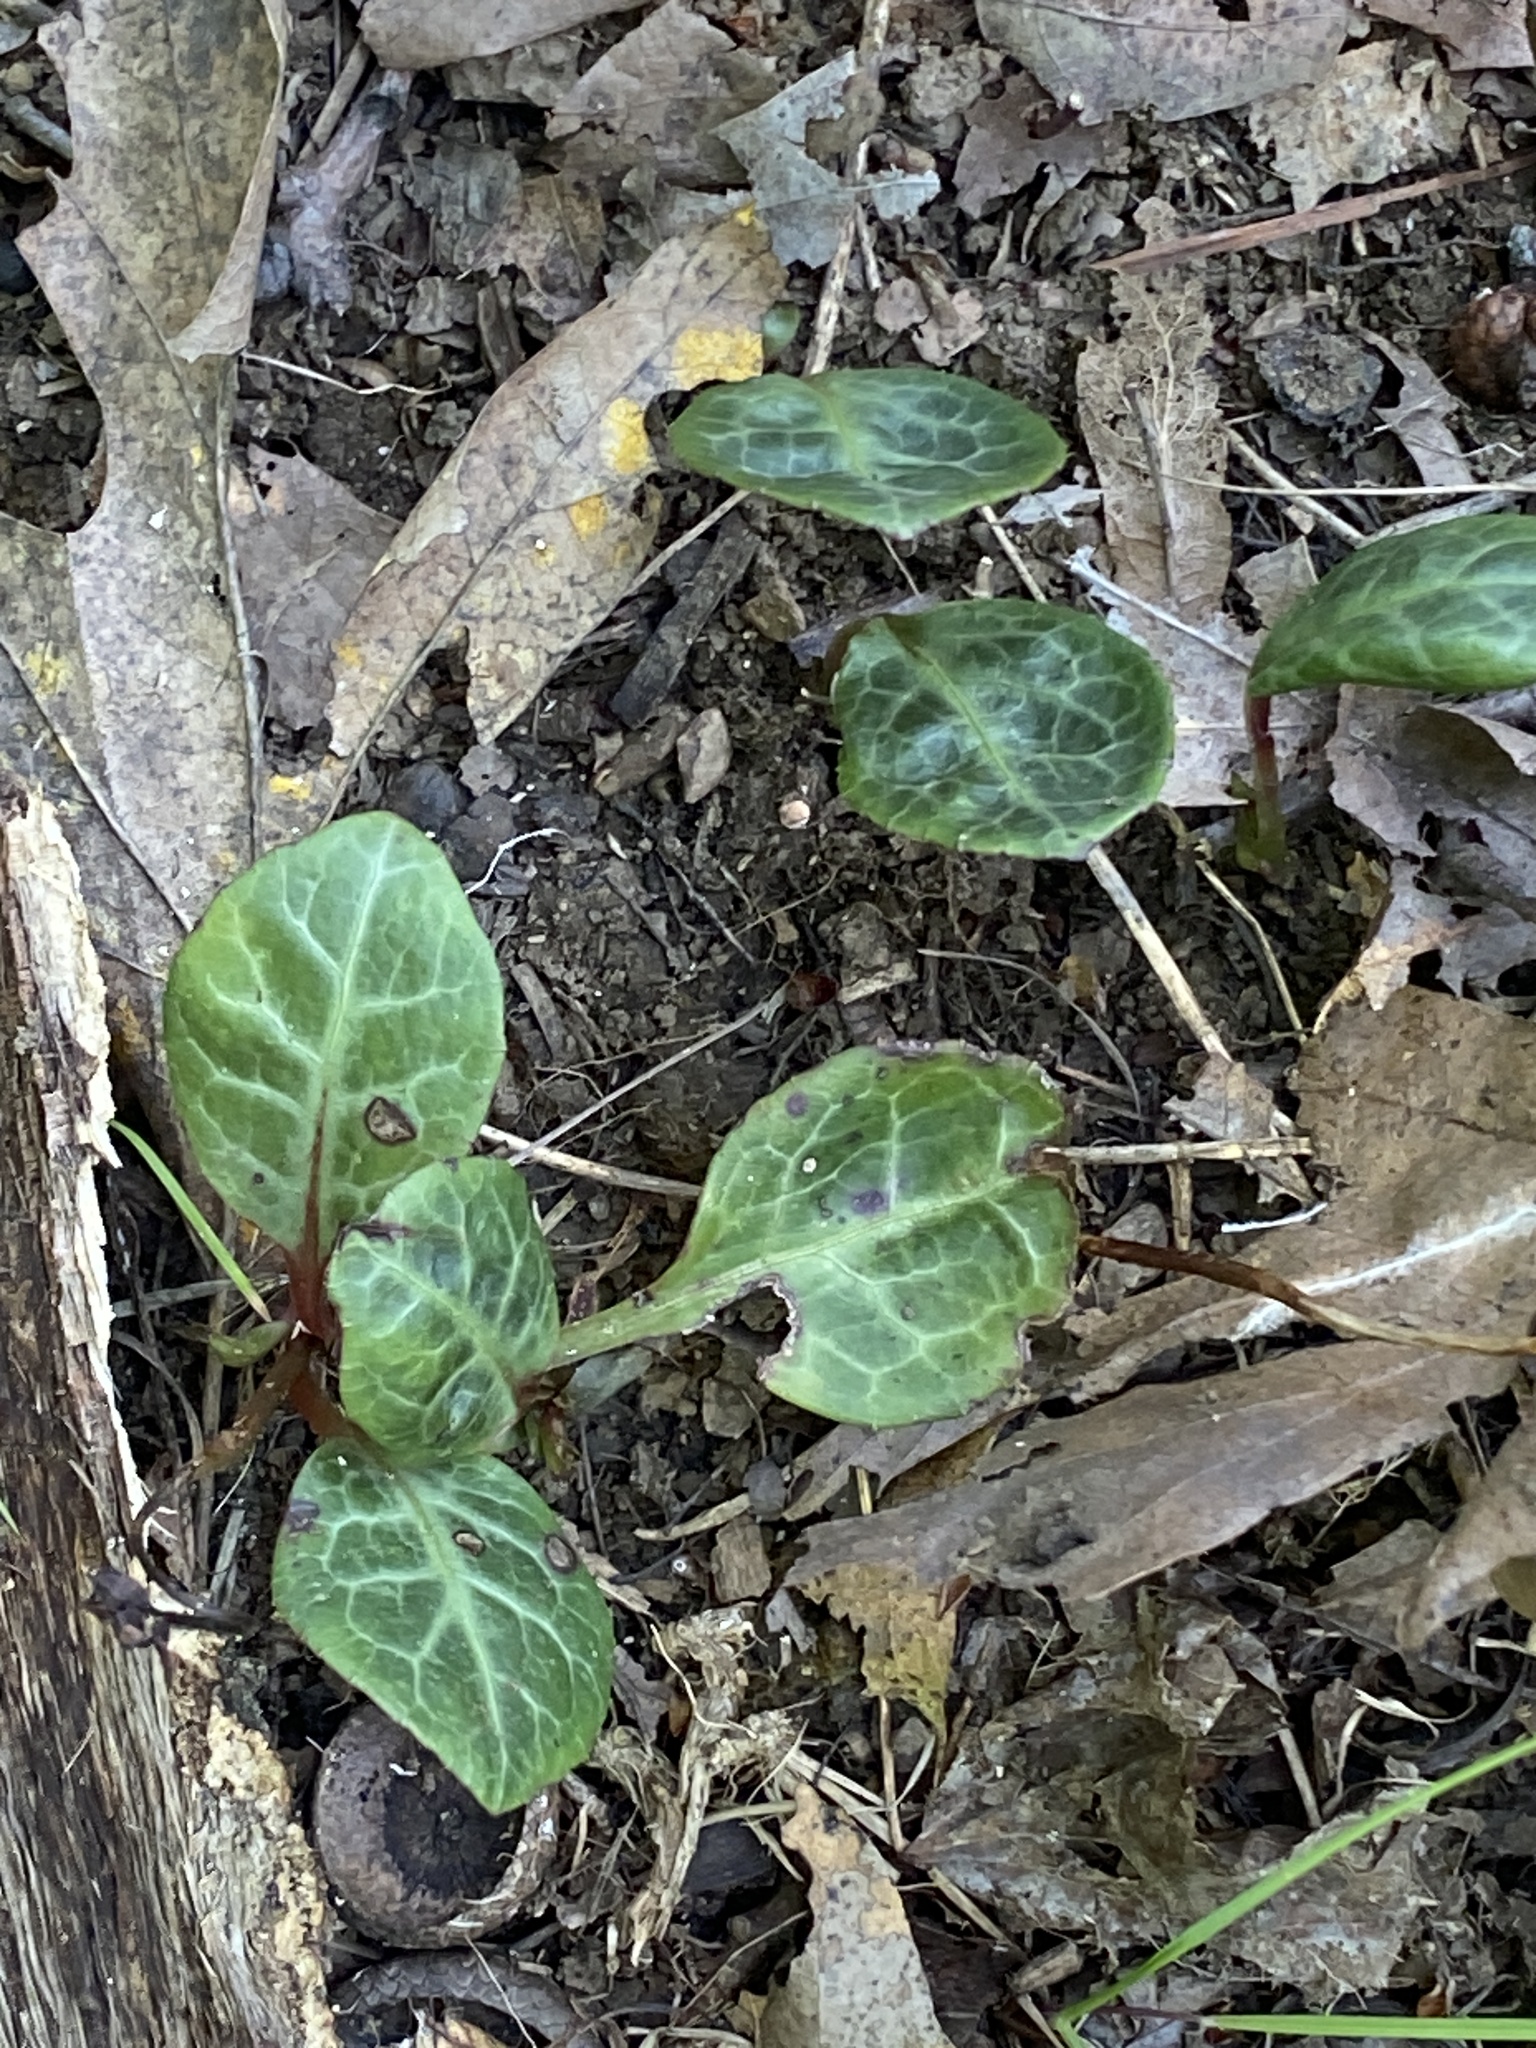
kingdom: Plantae
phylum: Tracheophyta
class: Magnoliopsida
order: Ericales
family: Ericaceae
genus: Pyrola
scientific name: Pyrola americana
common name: American wintergreen
